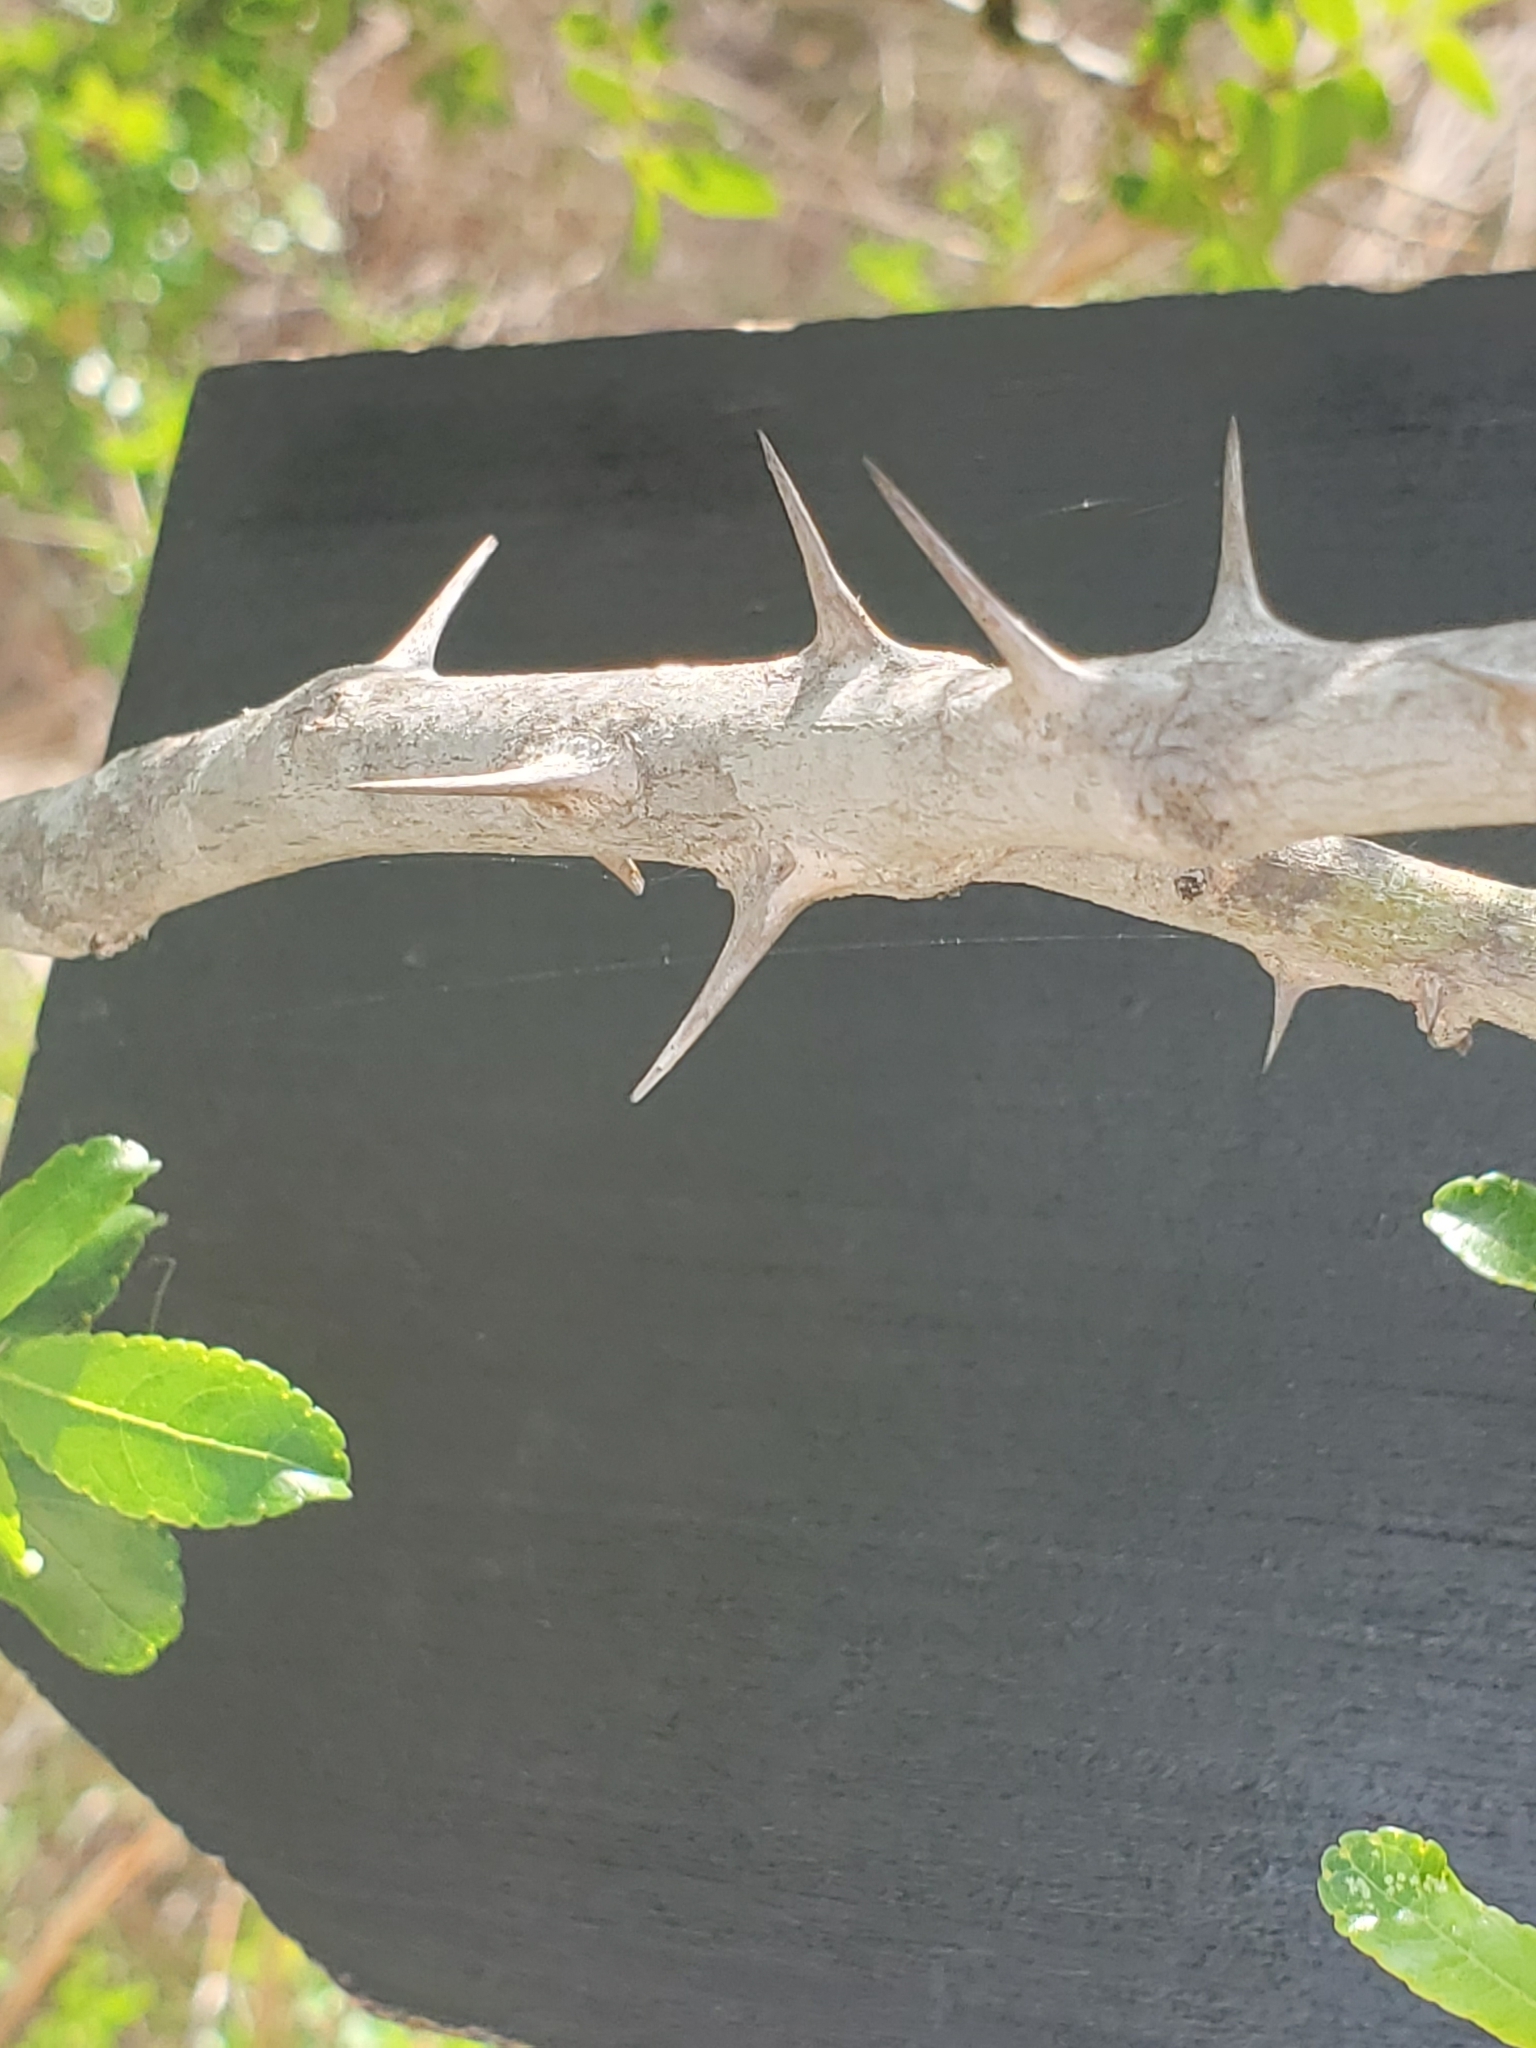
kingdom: Plantae
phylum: Tracheophyta
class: Magnoliopsida
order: Sapindales
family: Rutaceae
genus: Zanthoxylum
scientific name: Zanthoxylum clava-herculis
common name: Hercules'-club
